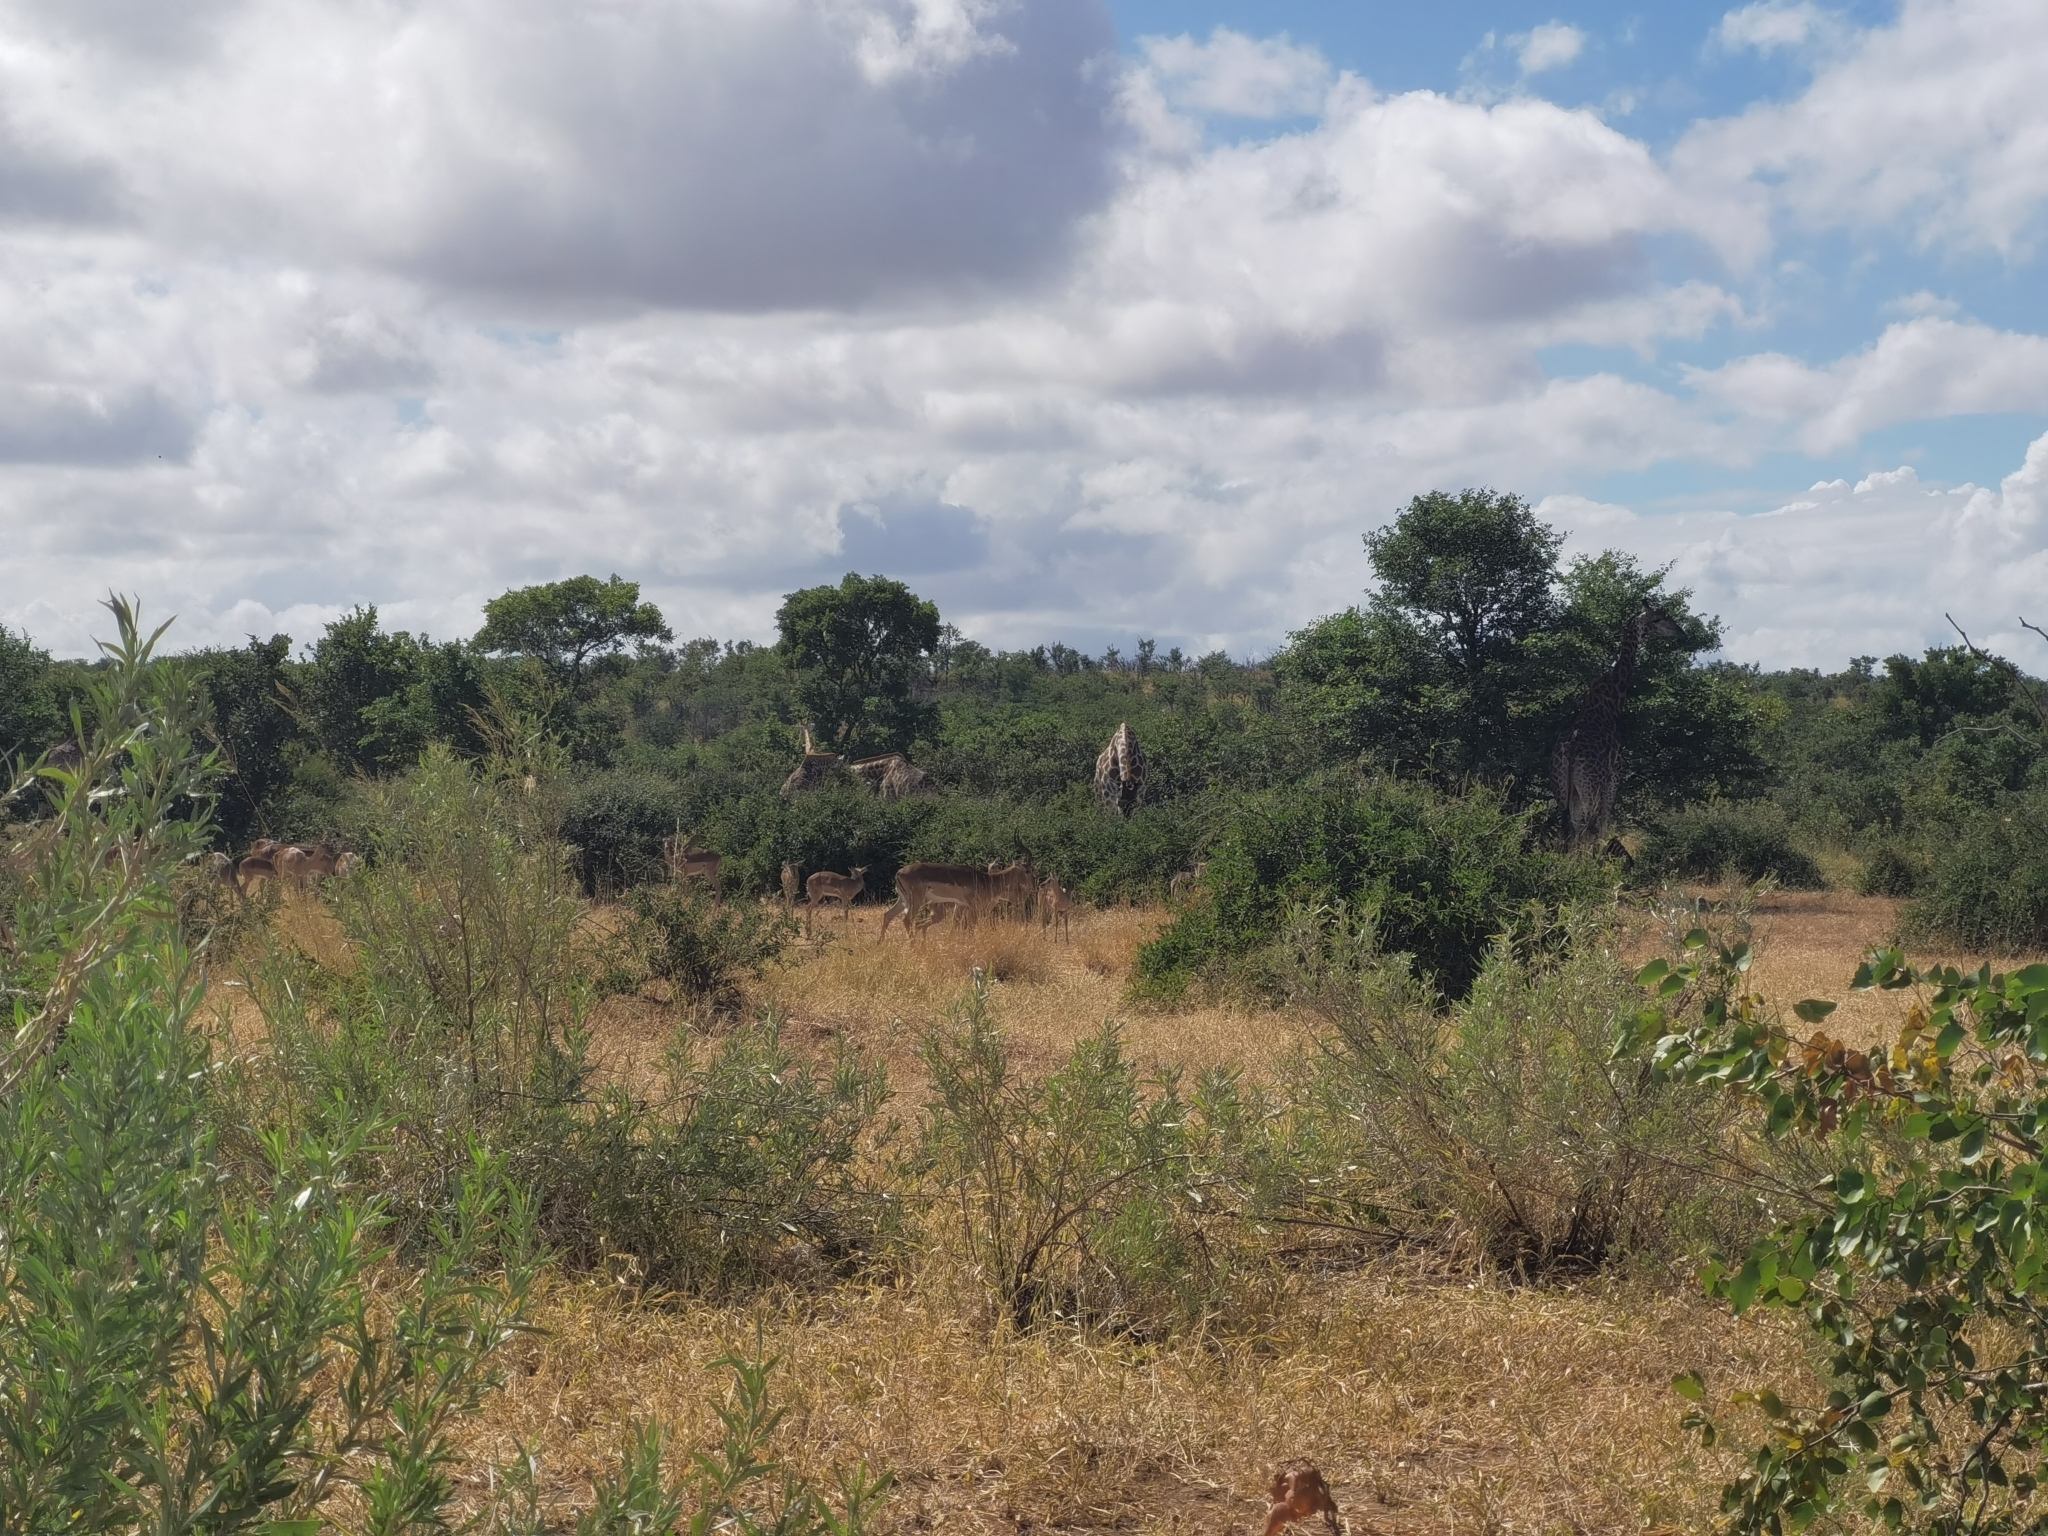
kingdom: Animalia
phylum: Chordata
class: Mammalia
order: Artiodactyla
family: Giraffidae
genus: Giraffa
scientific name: Giraffa giraffa
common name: Southern giraffe
